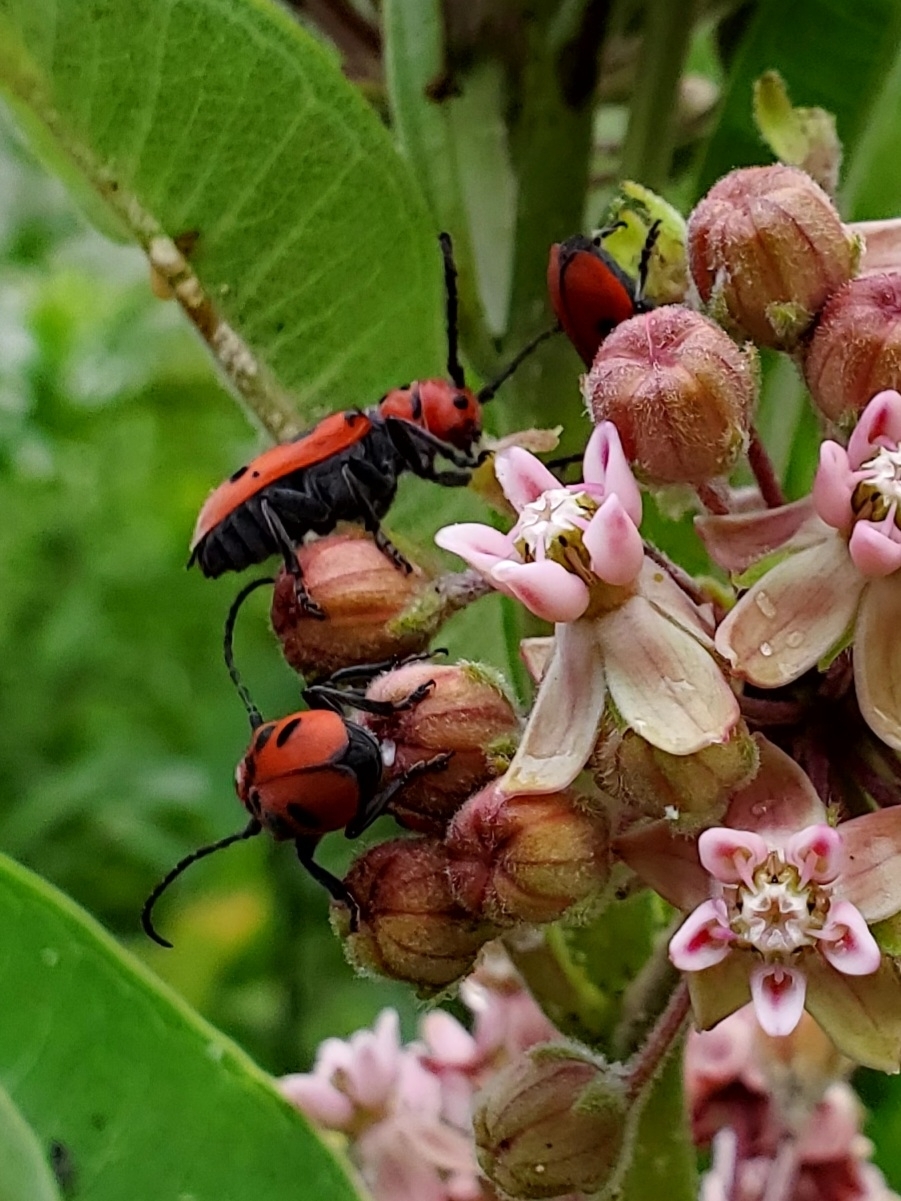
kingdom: Animalia
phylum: Arthropoda
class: Insecta
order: Coleoptera
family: Cerambycidae
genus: Tetraopes
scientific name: Tetraopes tetrophthalmus
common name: Red milkweed beetle
